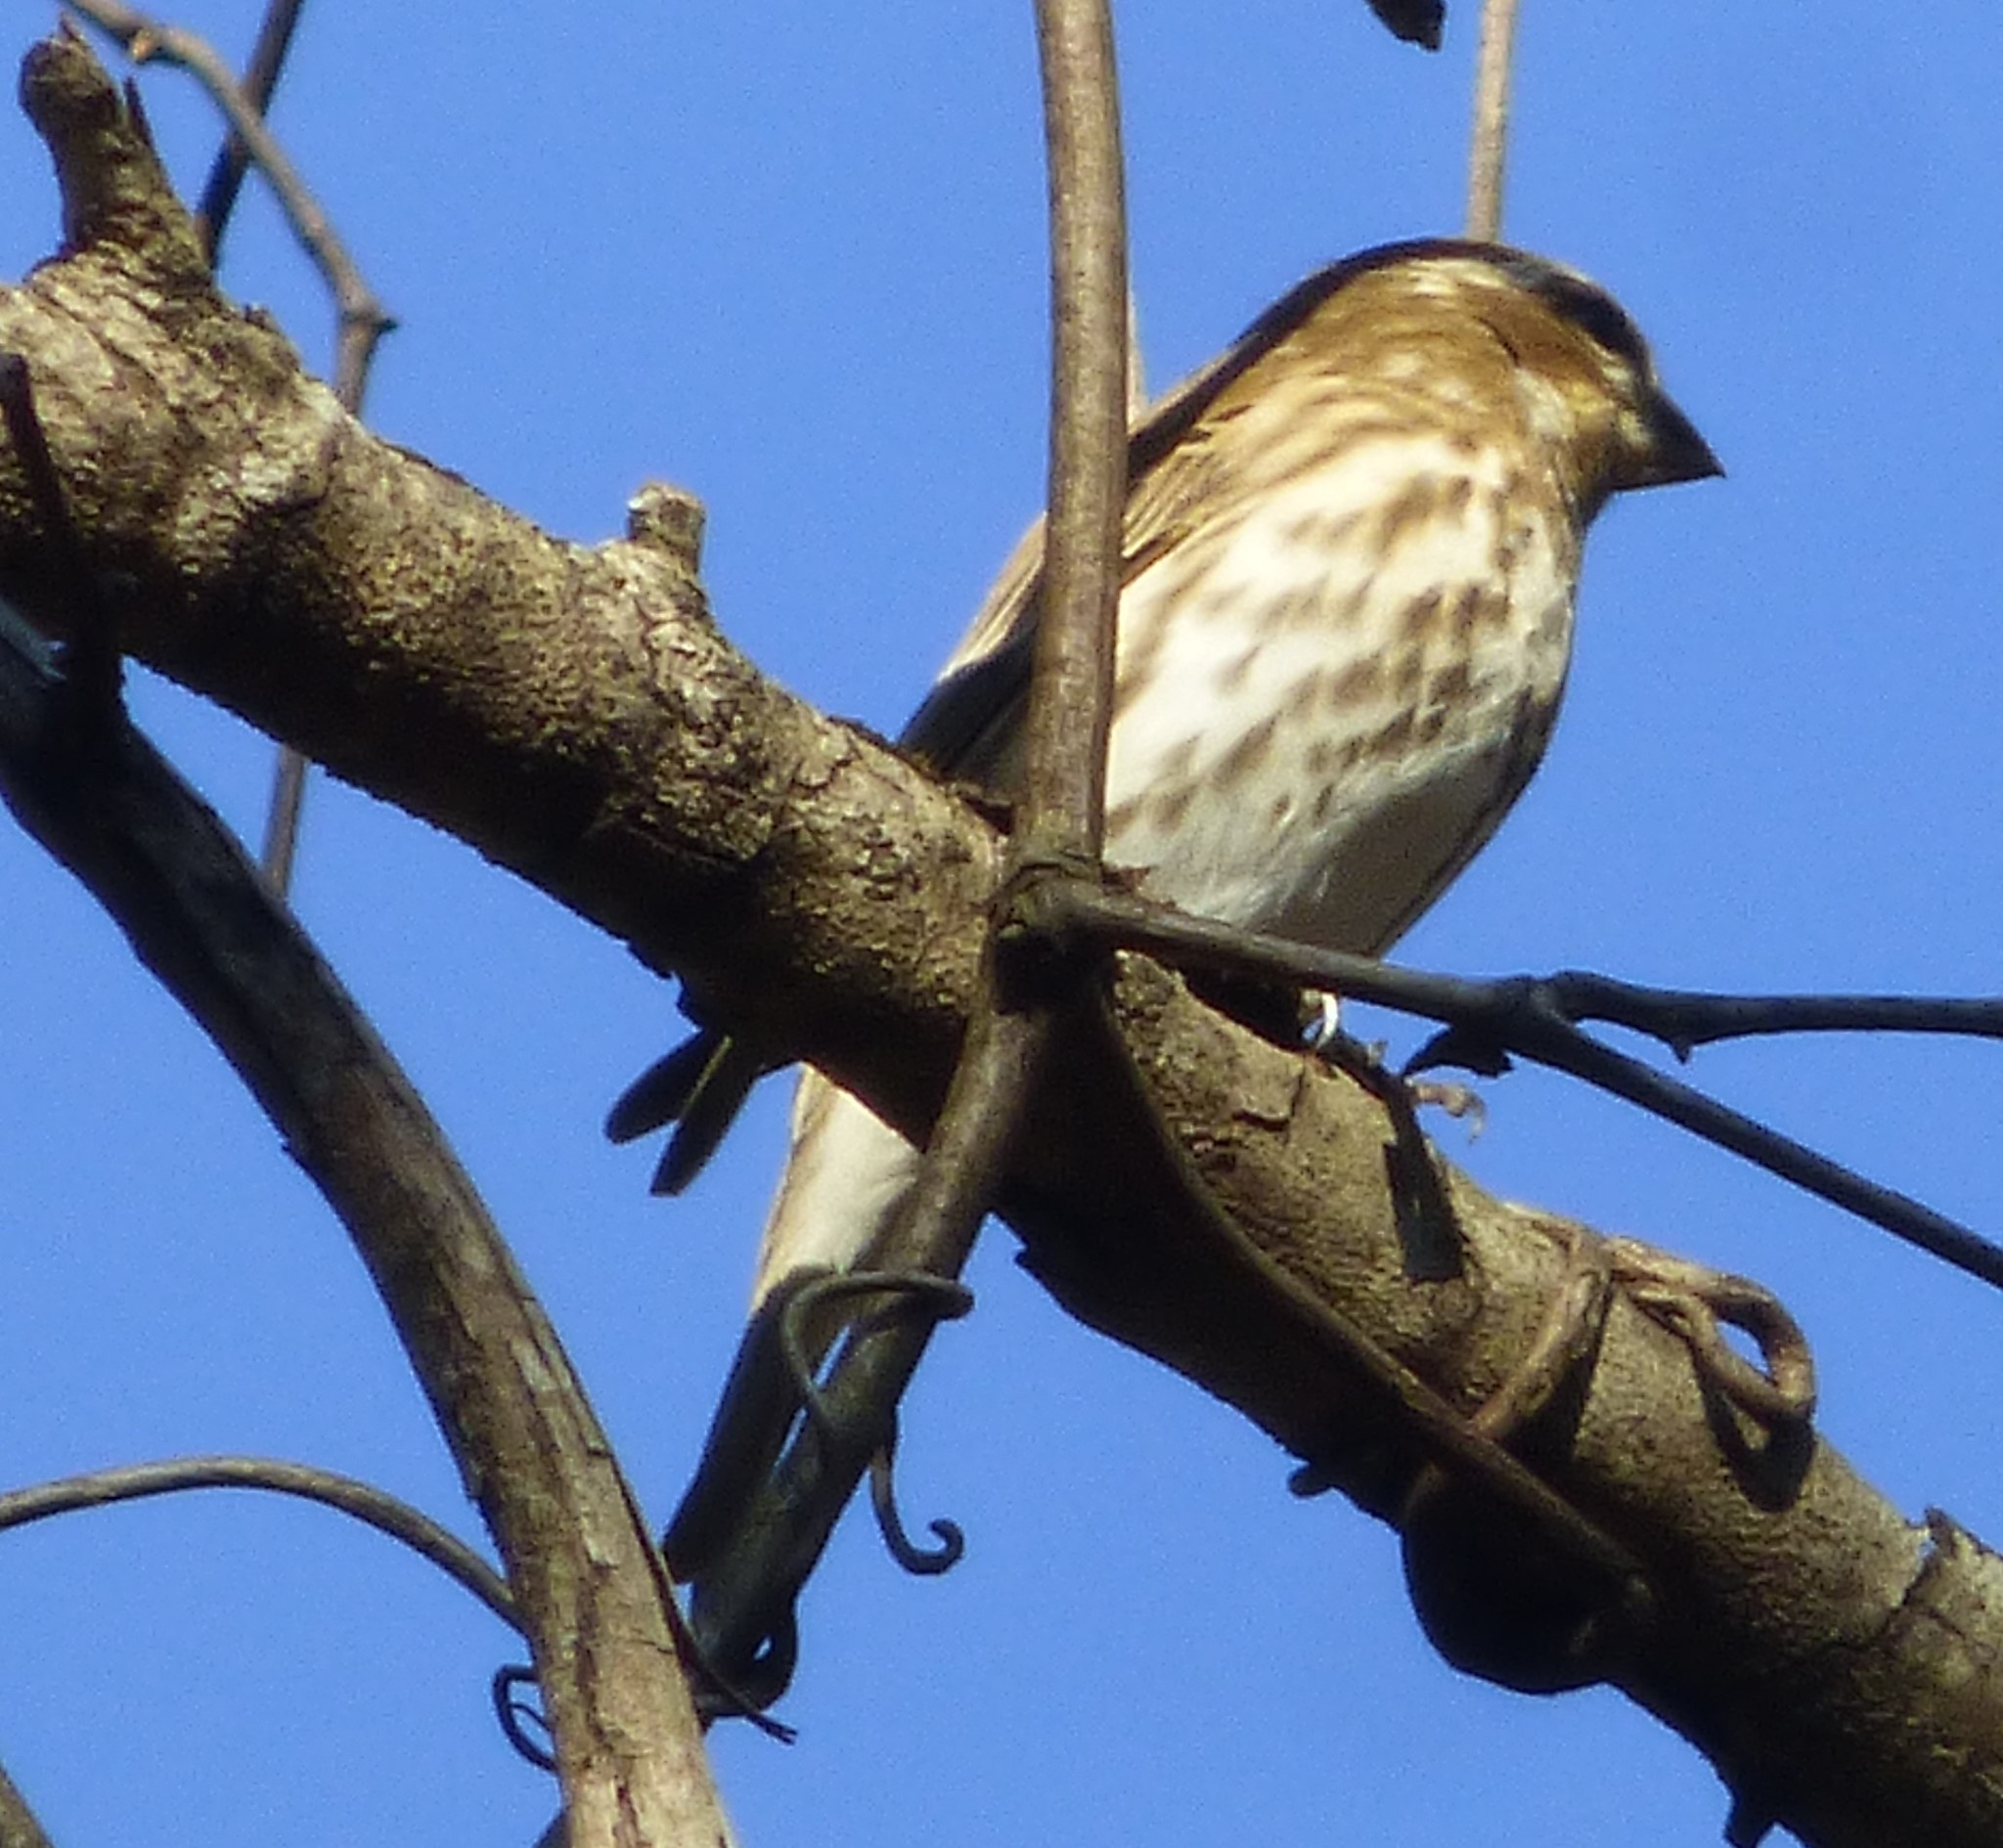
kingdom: Animalia
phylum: Chordata
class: Aves
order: Passeriformes
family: Fringillidae
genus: Haemorhous
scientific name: Haemorhous purpureus
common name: Purple finch
